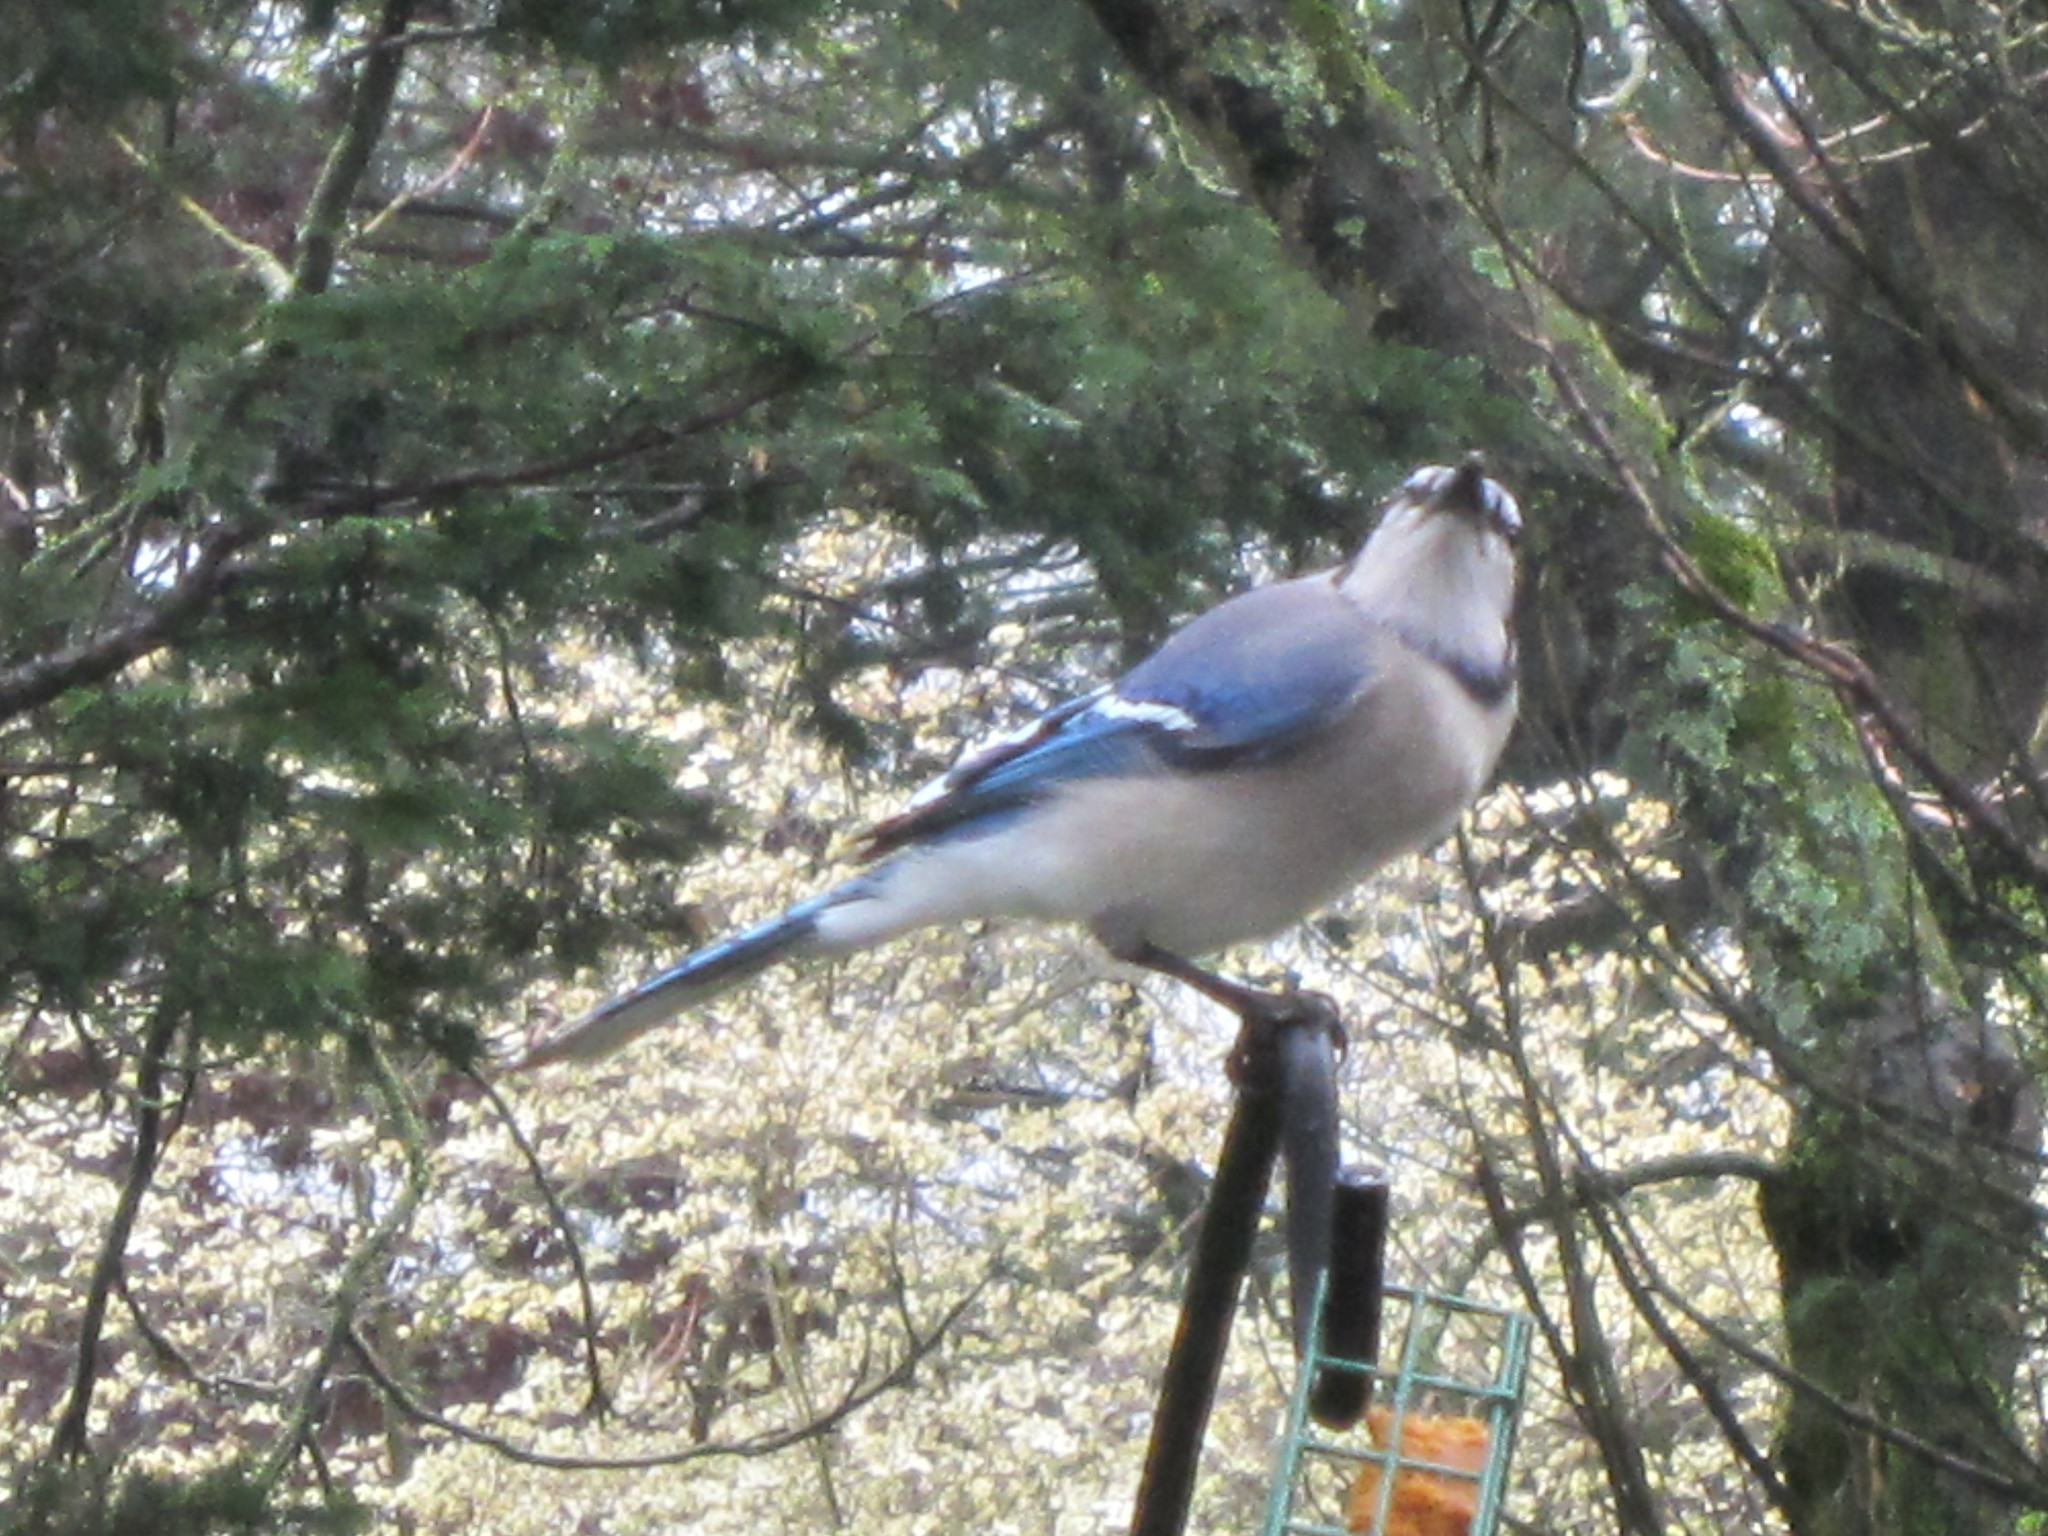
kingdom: Animalia
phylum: Chordata
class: Aves
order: Passeriformes
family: Corvidae
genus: Cyanocitta
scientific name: Cyanocitta cristata
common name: Blue jay
